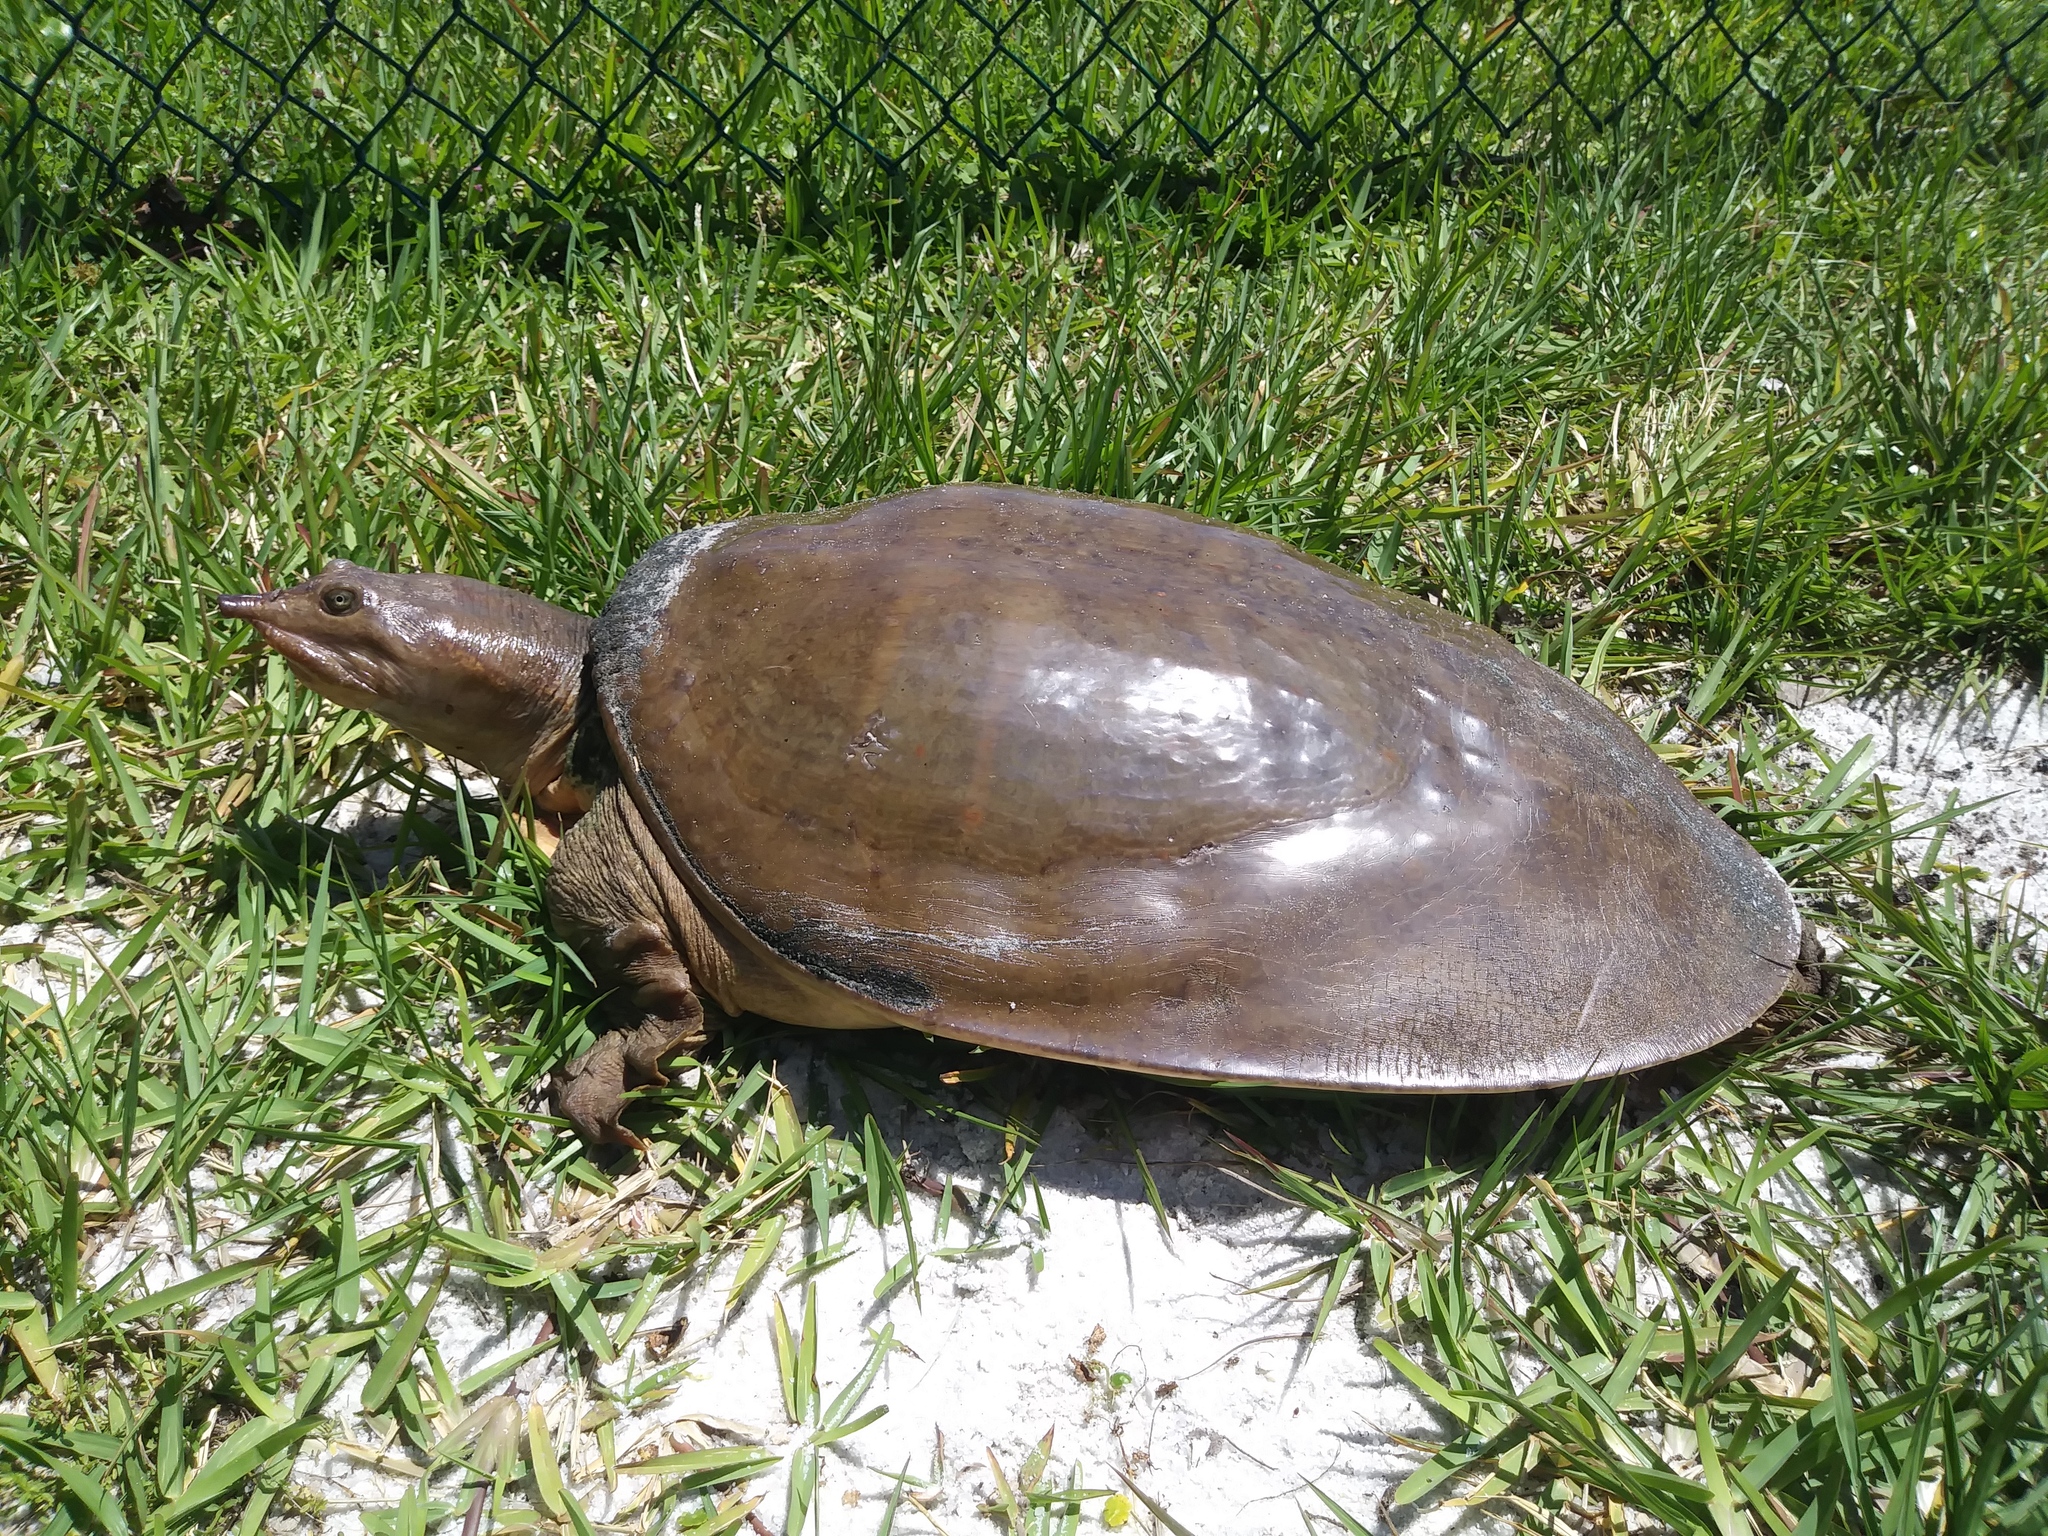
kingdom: Animalia
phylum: Chordata
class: Testudines
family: Trionychidae
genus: Apalone
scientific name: Apalone ferox
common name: Florida softshell turtle
